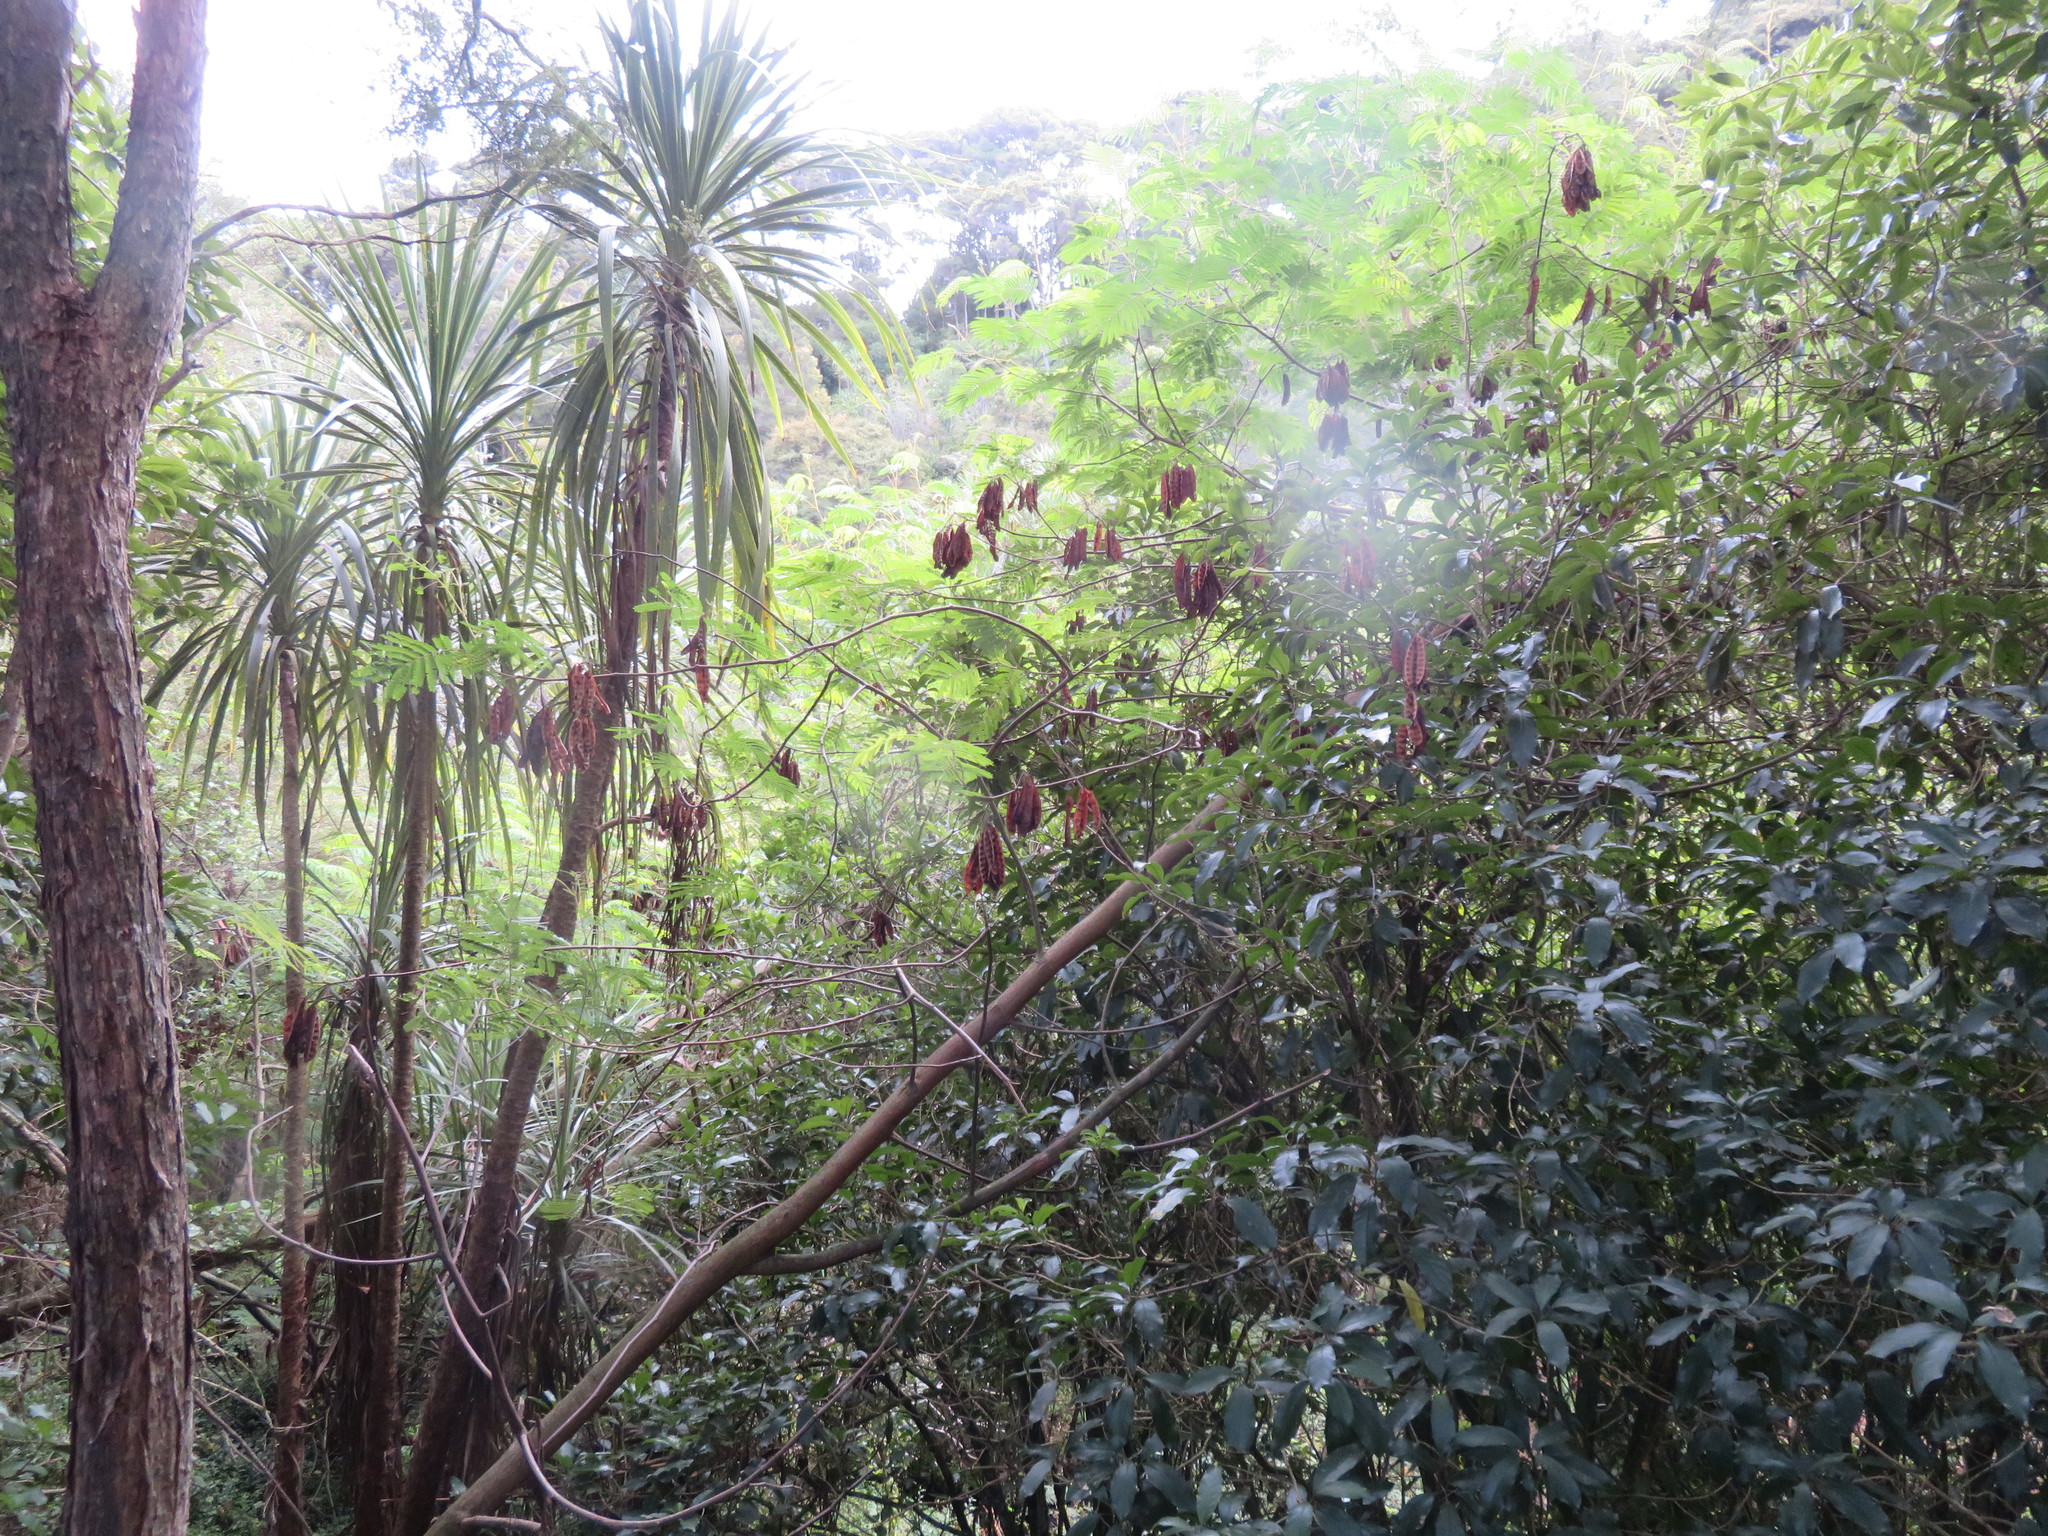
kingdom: Plantae
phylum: Tracheophyta
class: Liliopsida
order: Asparagales
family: Asparagaceae
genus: Cordyline
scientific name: Cordyline australis
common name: Cabbage-palm
